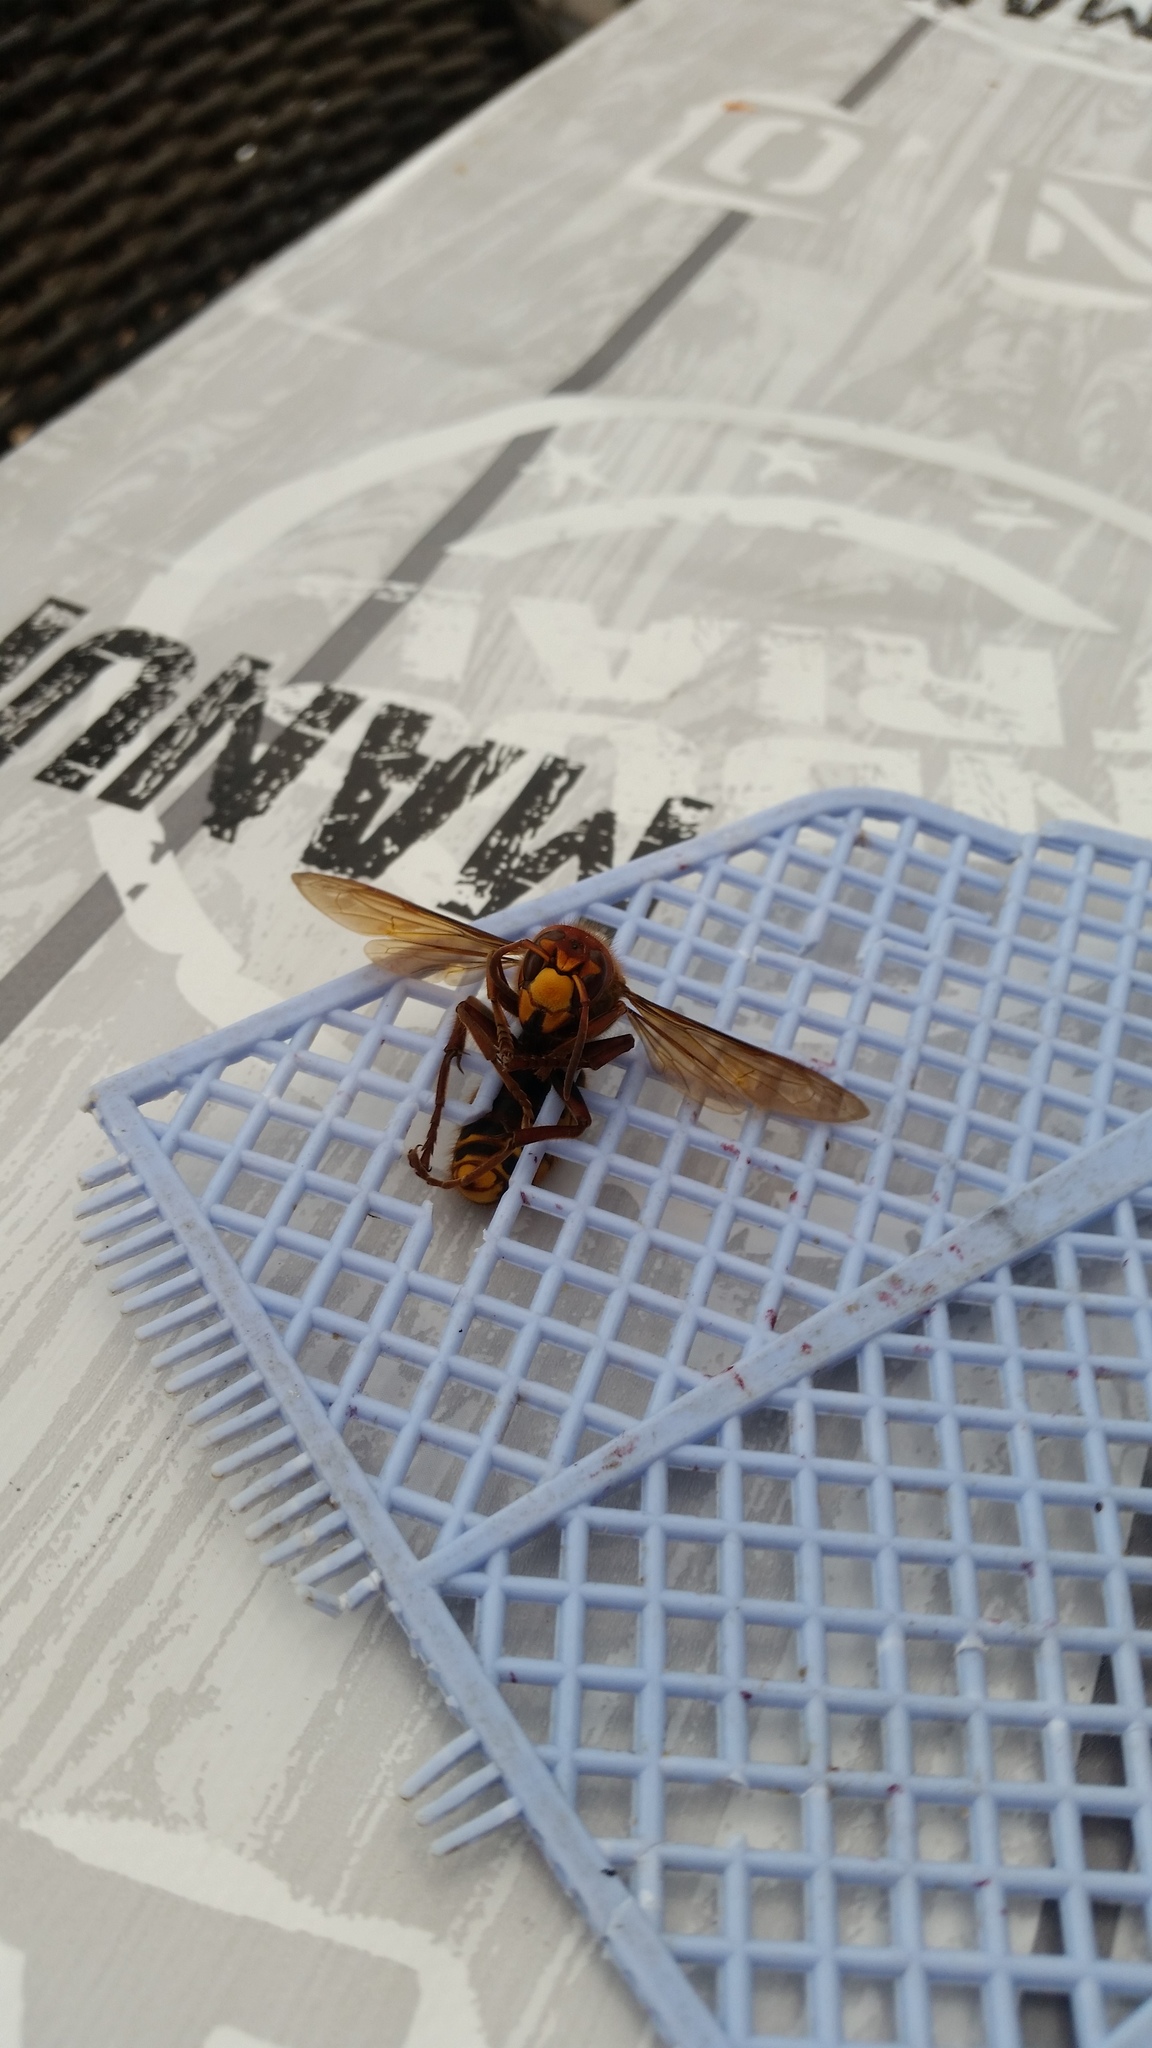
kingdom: Animalia
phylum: Arthropoda
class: Insecta
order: Hymenoptera
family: Vespidae
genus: Vespa
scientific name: Vespa crabro
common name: Hornet
